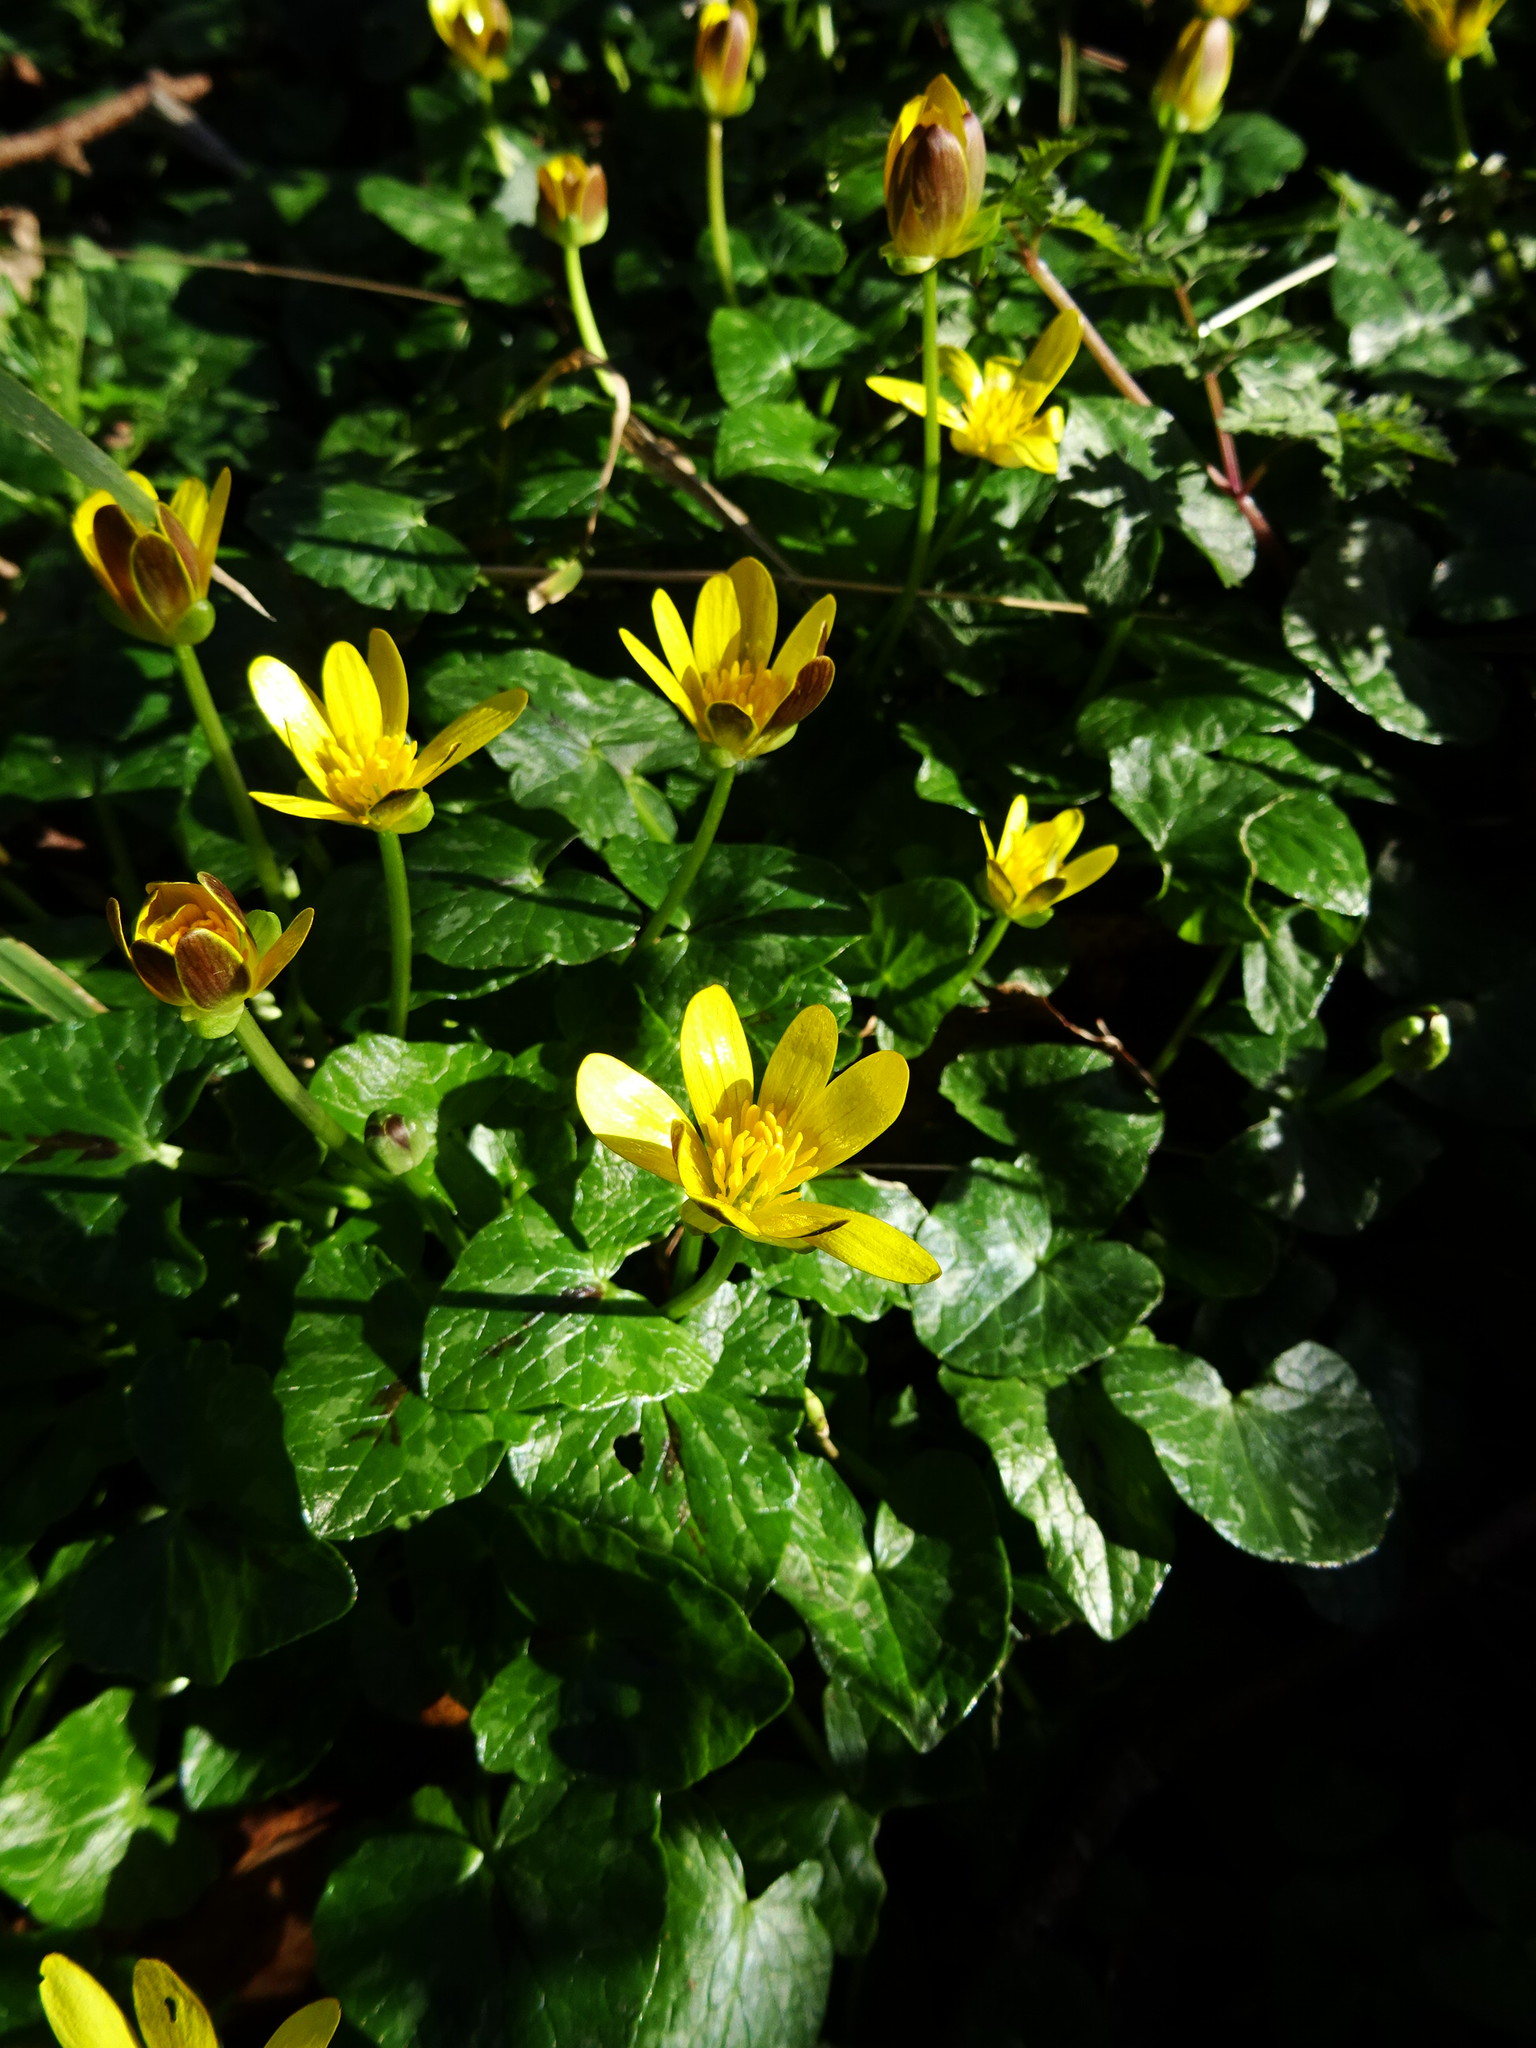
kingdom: Plantae
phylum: Tracheophyta
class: Magnoliopsida
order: Ranunculales
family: Ranunculaceae
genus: Ficaria
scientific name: Ficaria verna
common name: Lesser celandine
